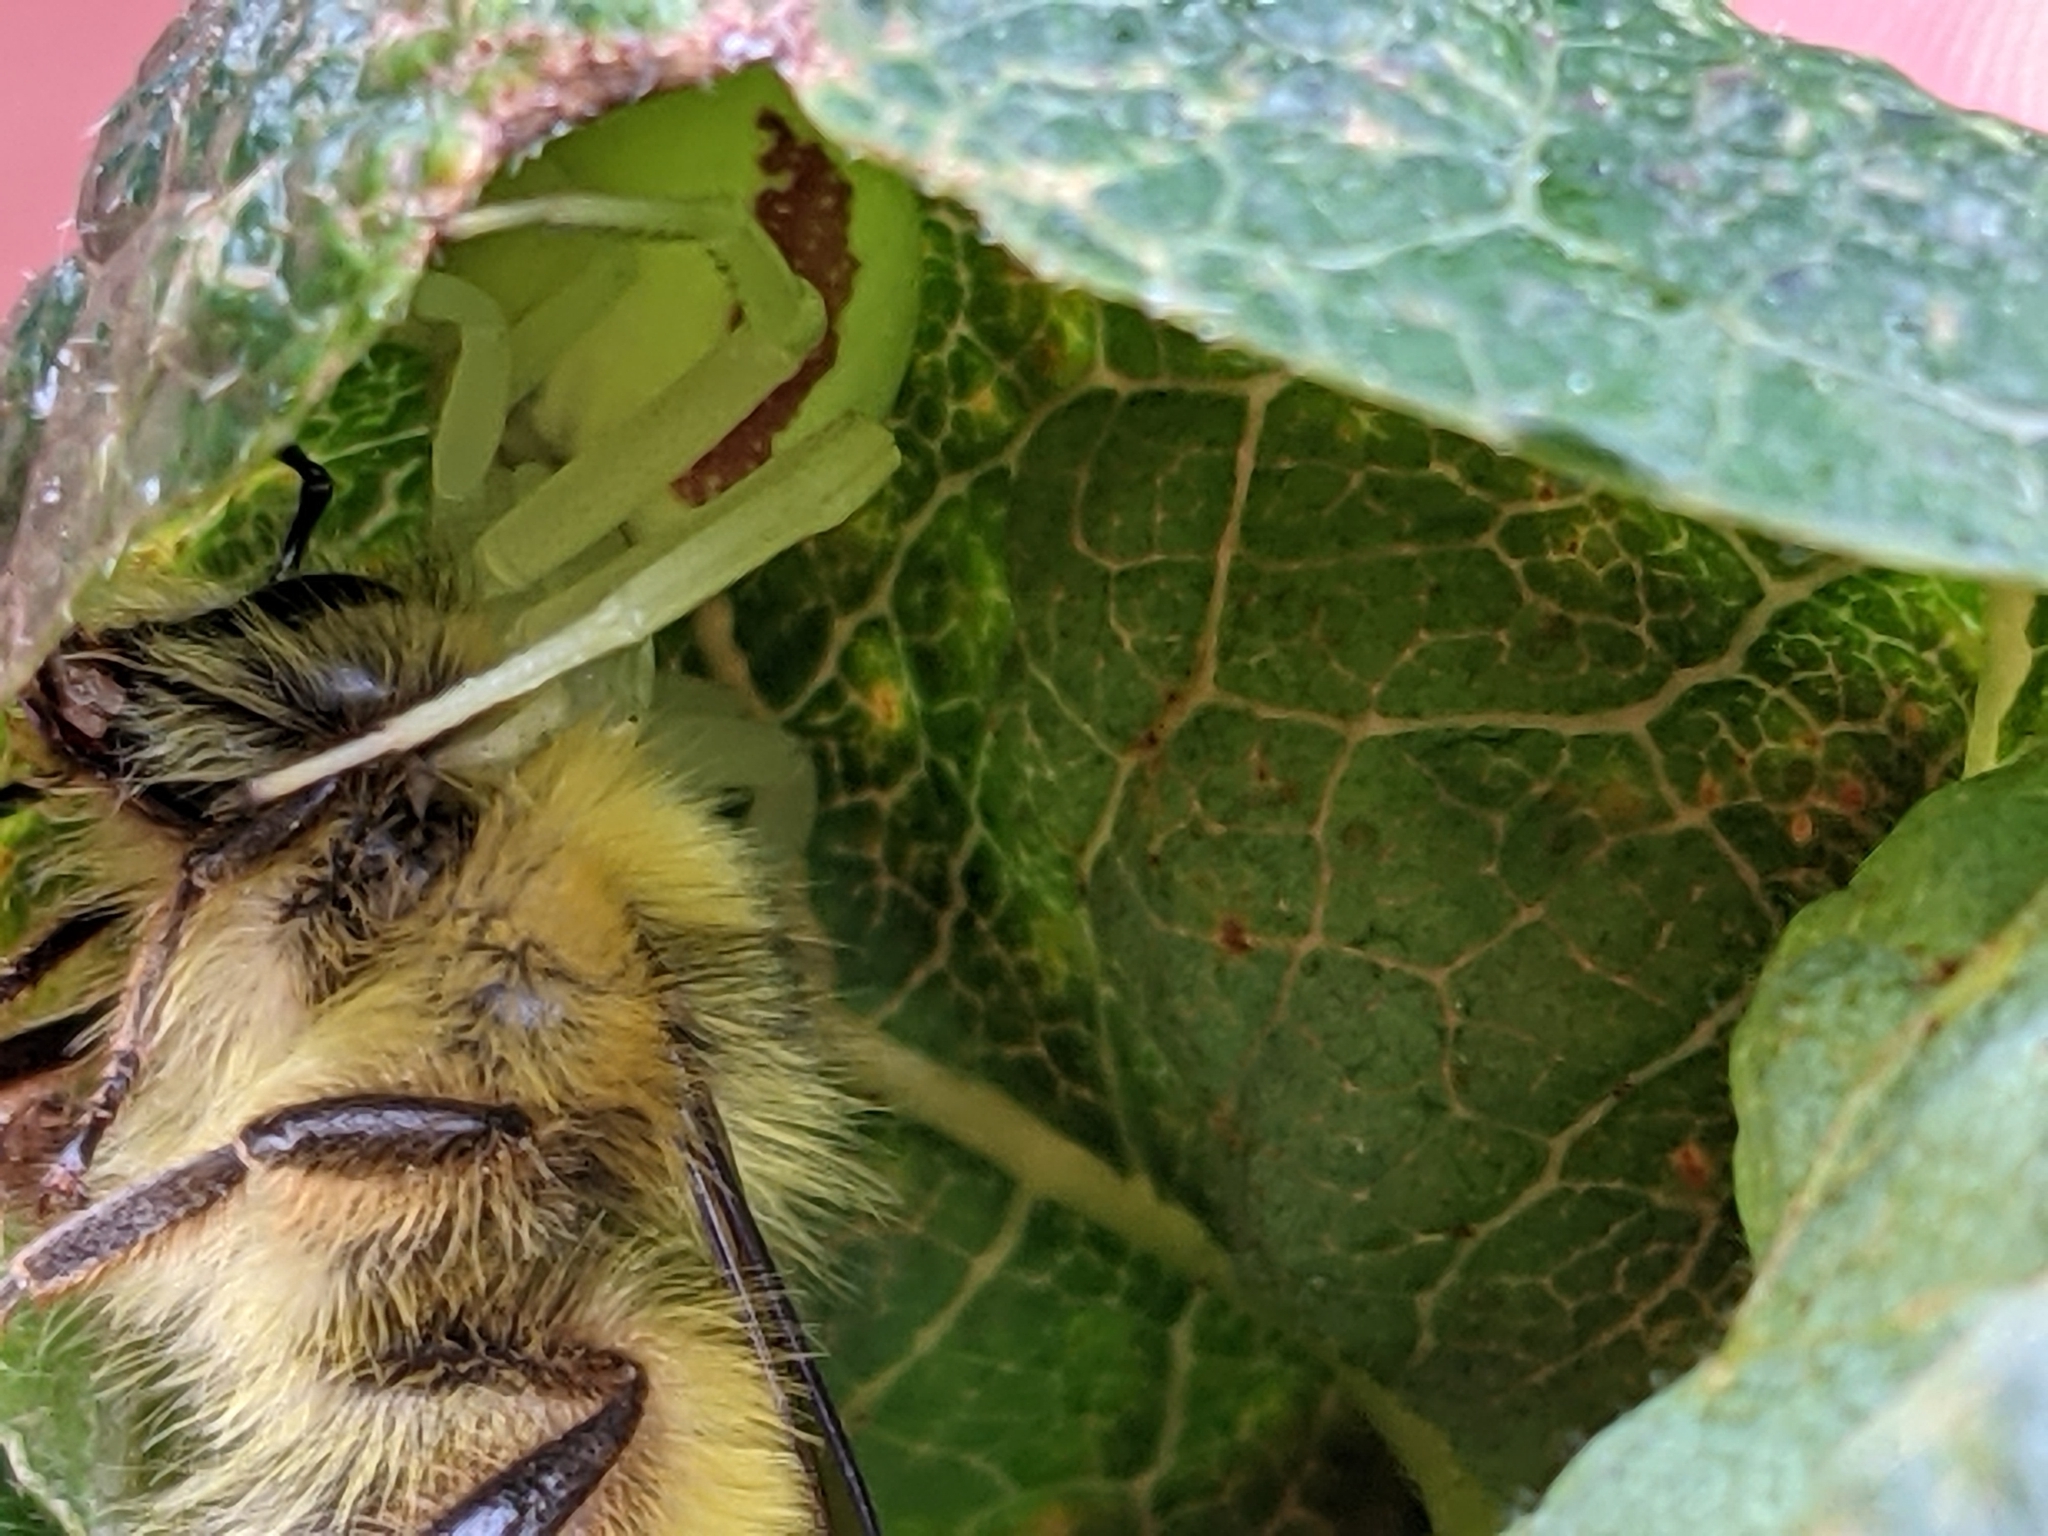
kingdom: Animalia
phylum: Arthropoda
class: Insecta
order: Hymenoptera
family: Apidae
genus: Bombus
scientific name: Bombus sitkensis
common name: Sitka bumble bee
